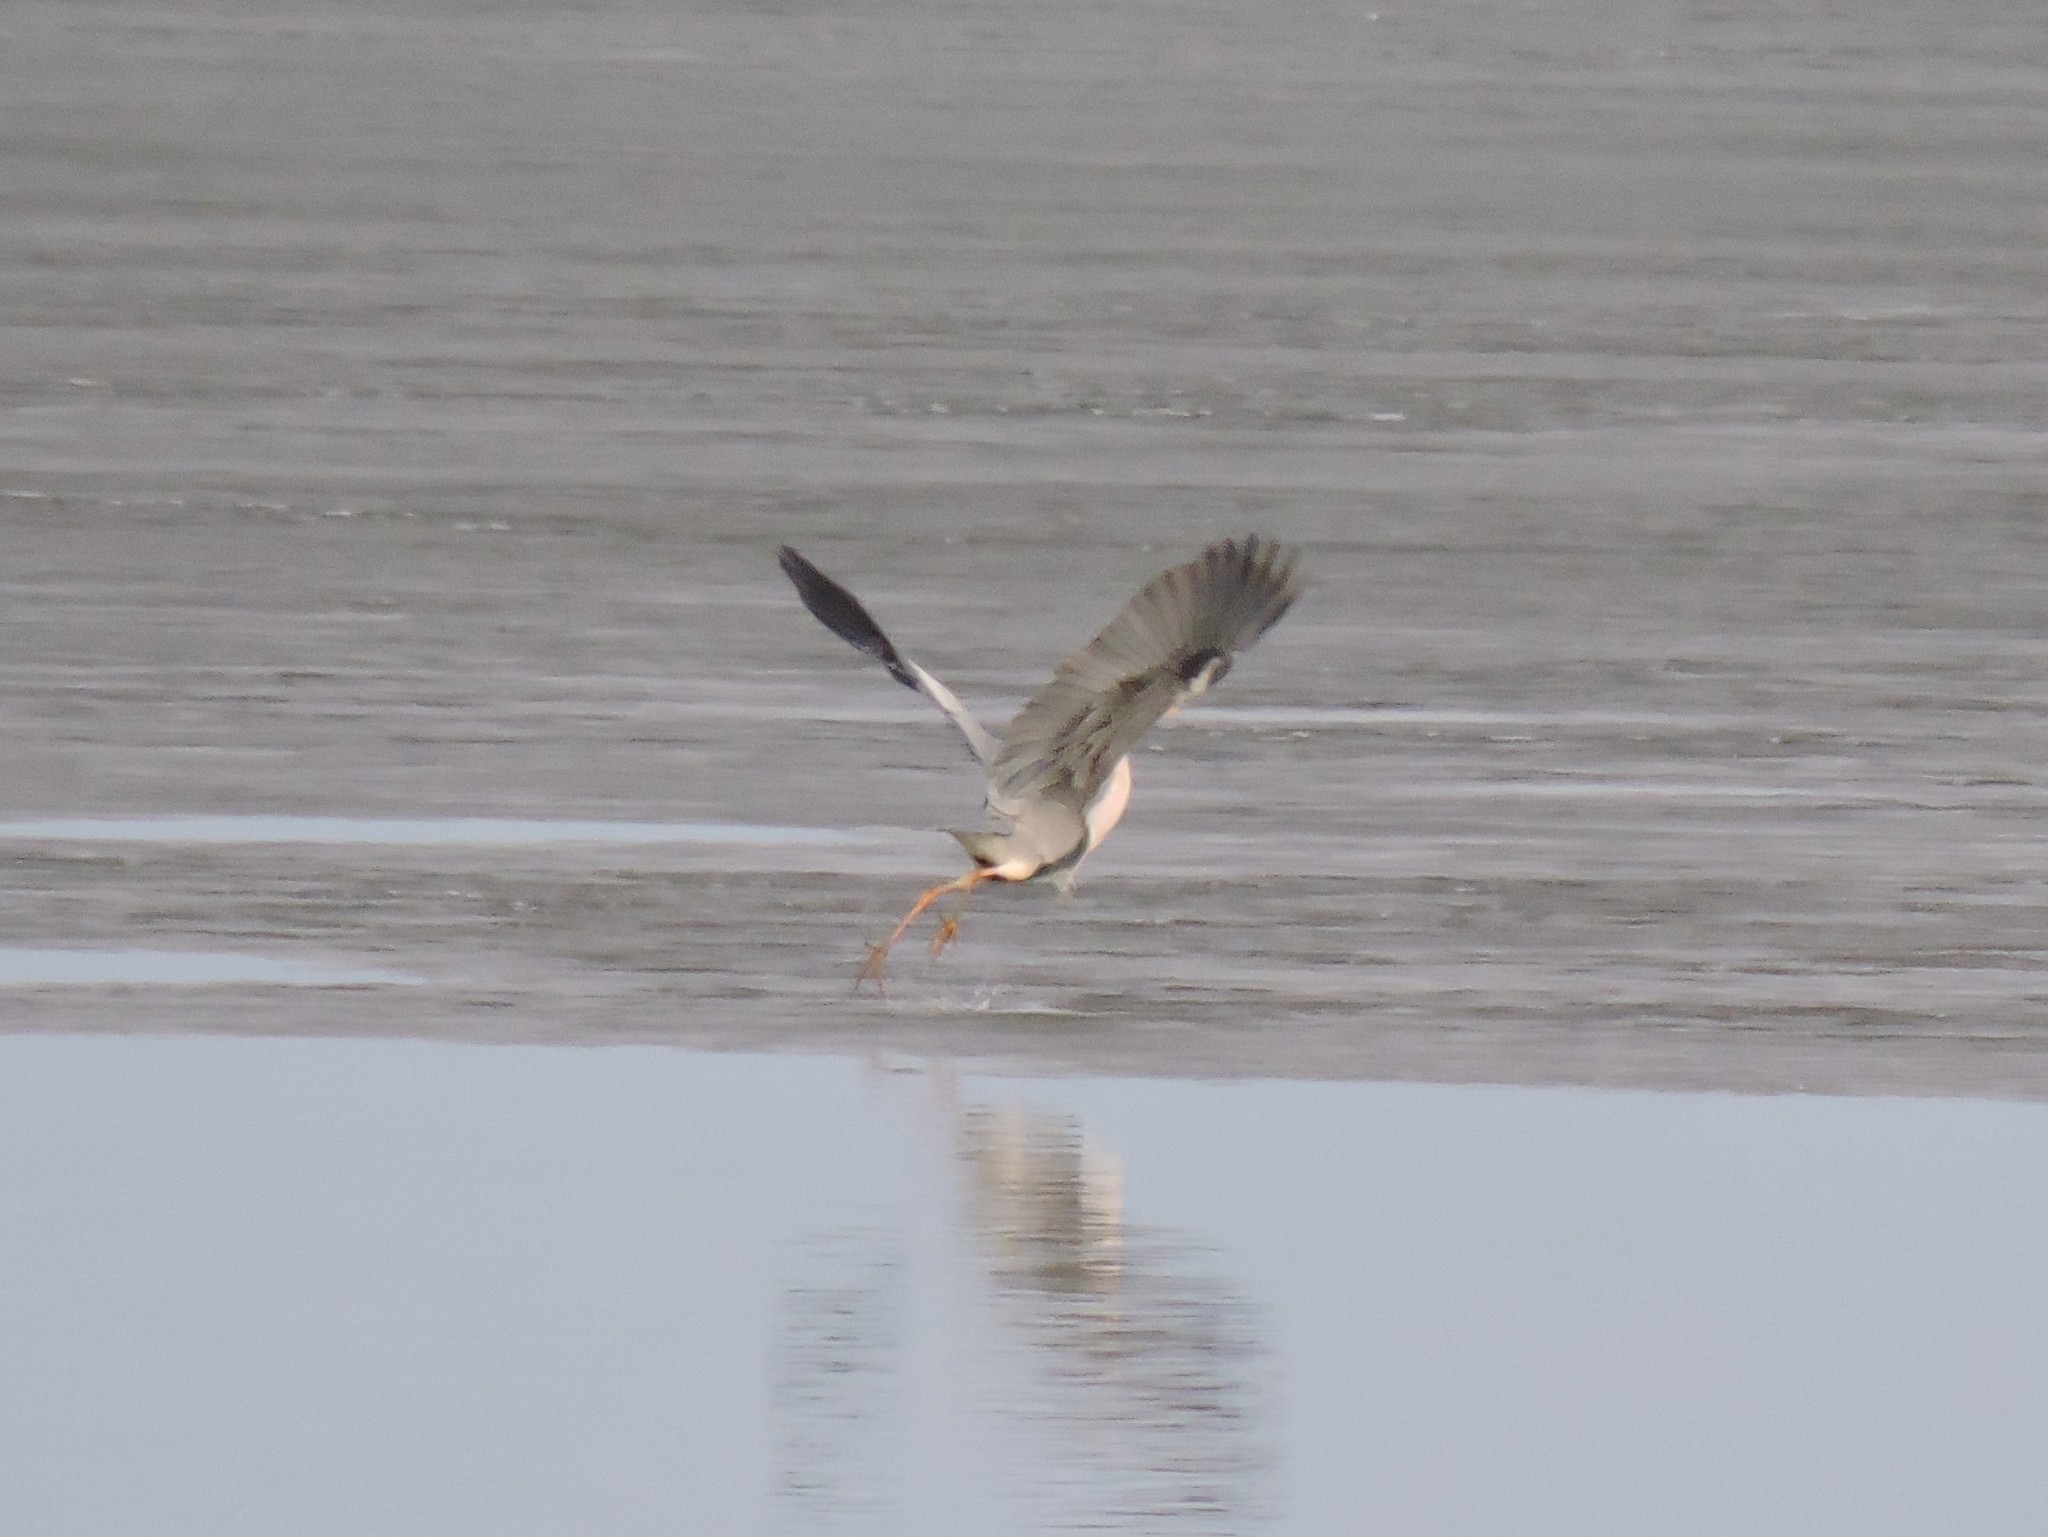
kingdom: Animalia
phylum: Chordata
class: Aves
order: Pelecaniformes
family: Ardeidae
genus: Ardea
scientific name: Ardea cinerea
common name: Grey heron
